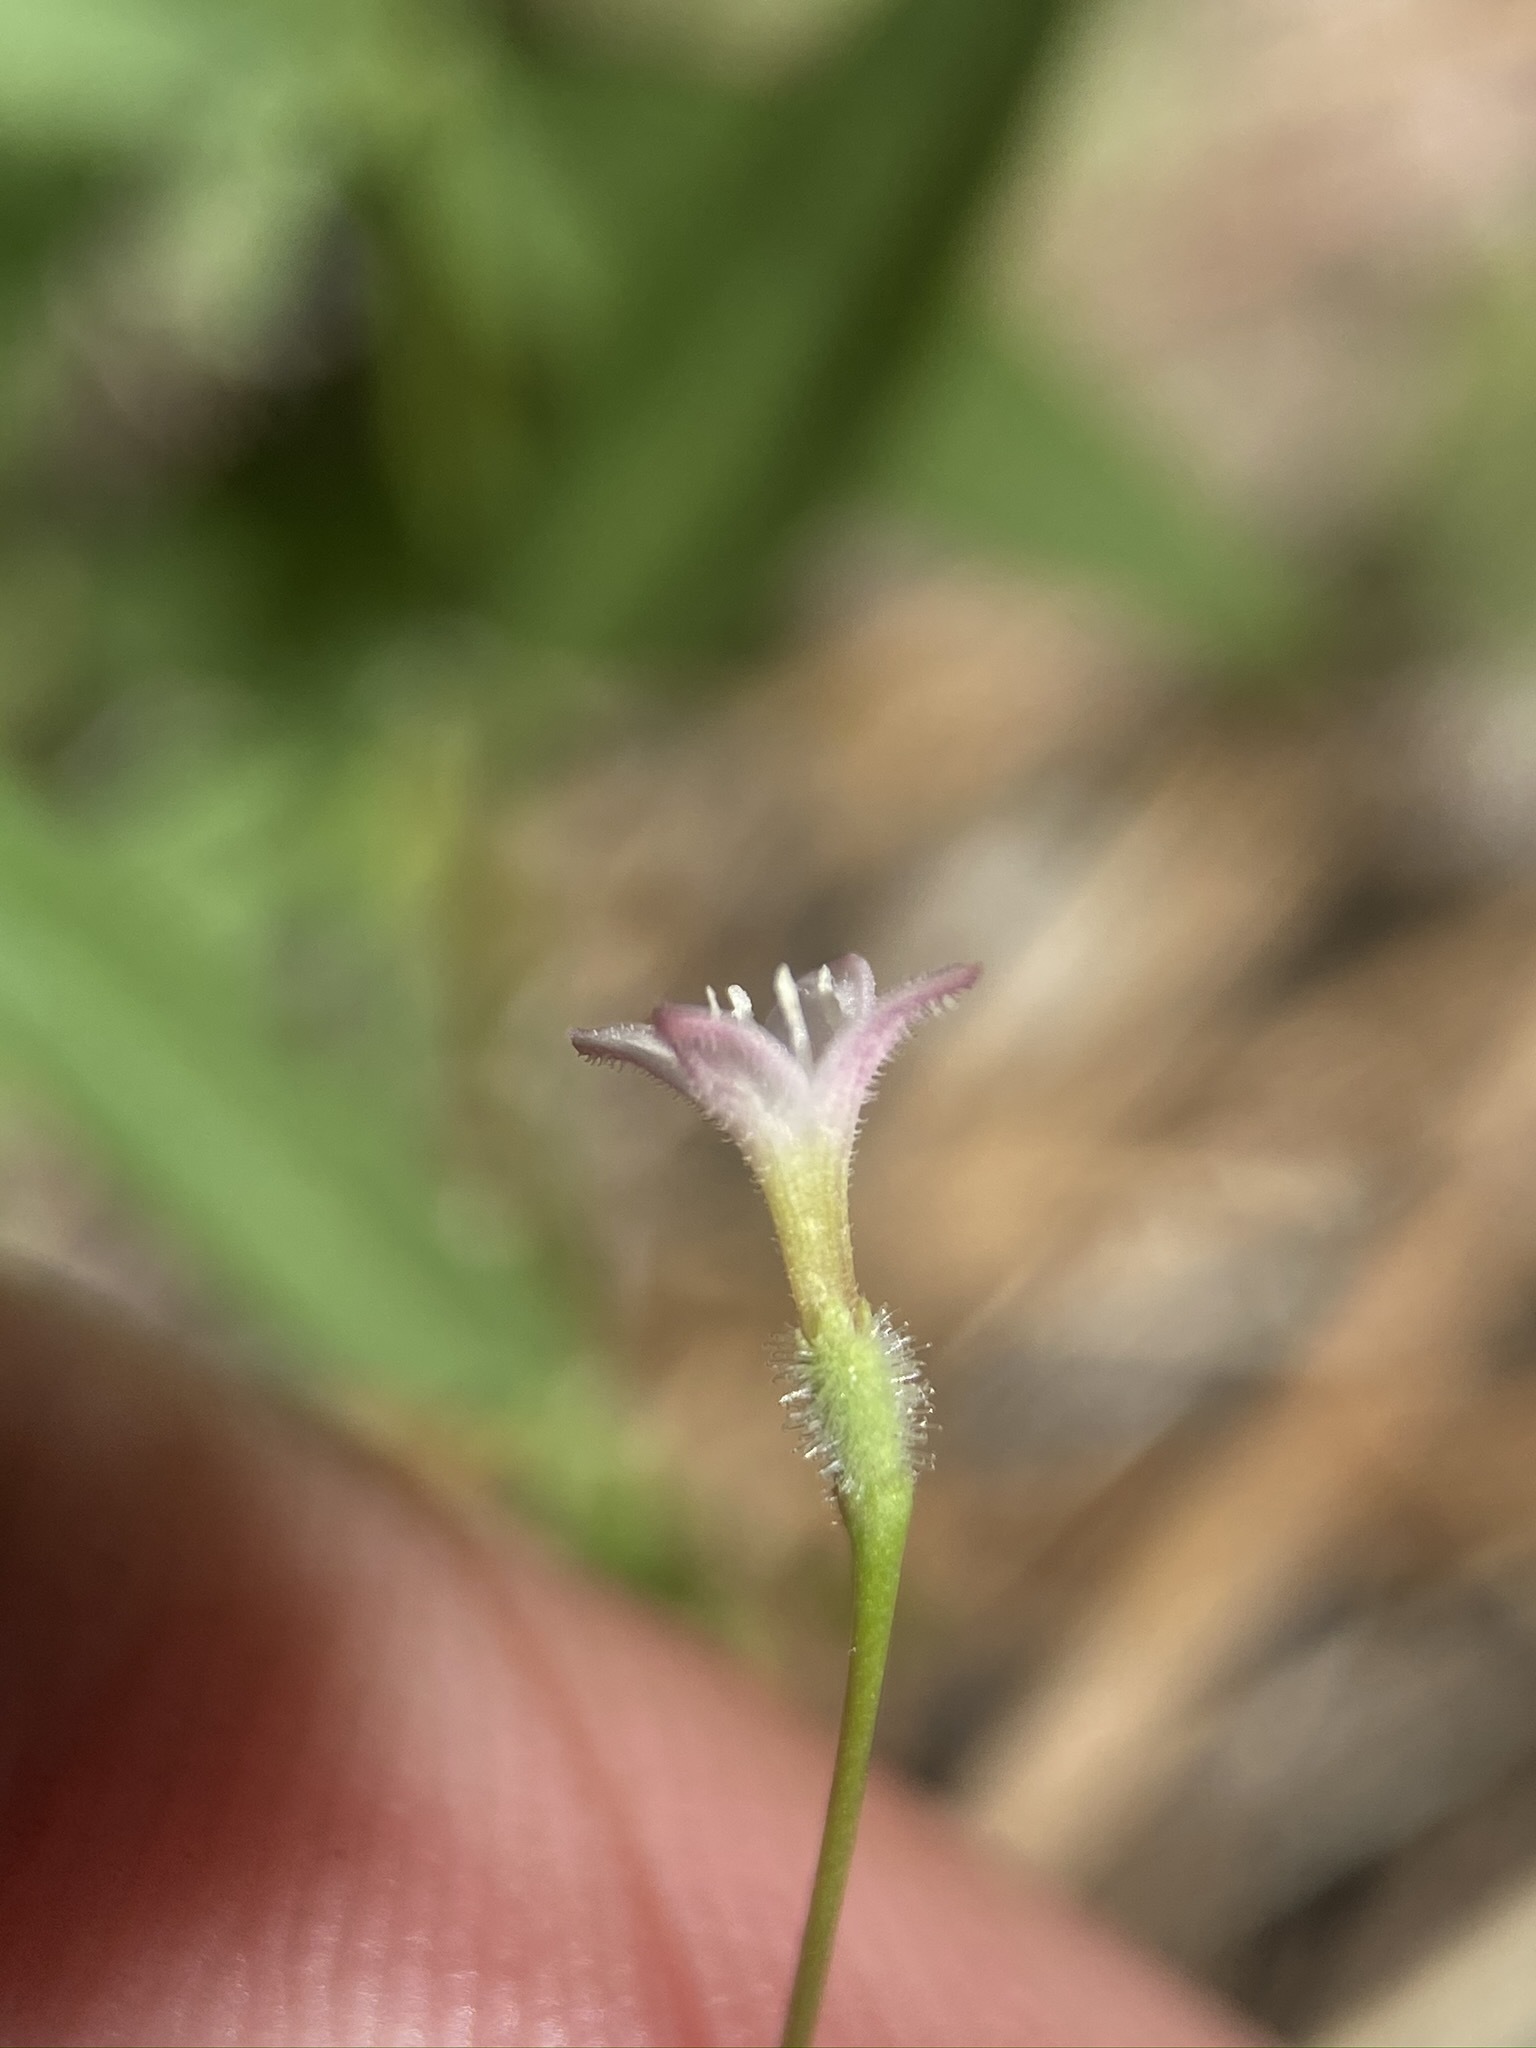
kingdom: Plantae
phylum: Tracheophyta
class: Magnoliopsida
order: Gentianales
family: Rubiaceae
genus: Kelloggia
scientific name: Kelloggia galioides
